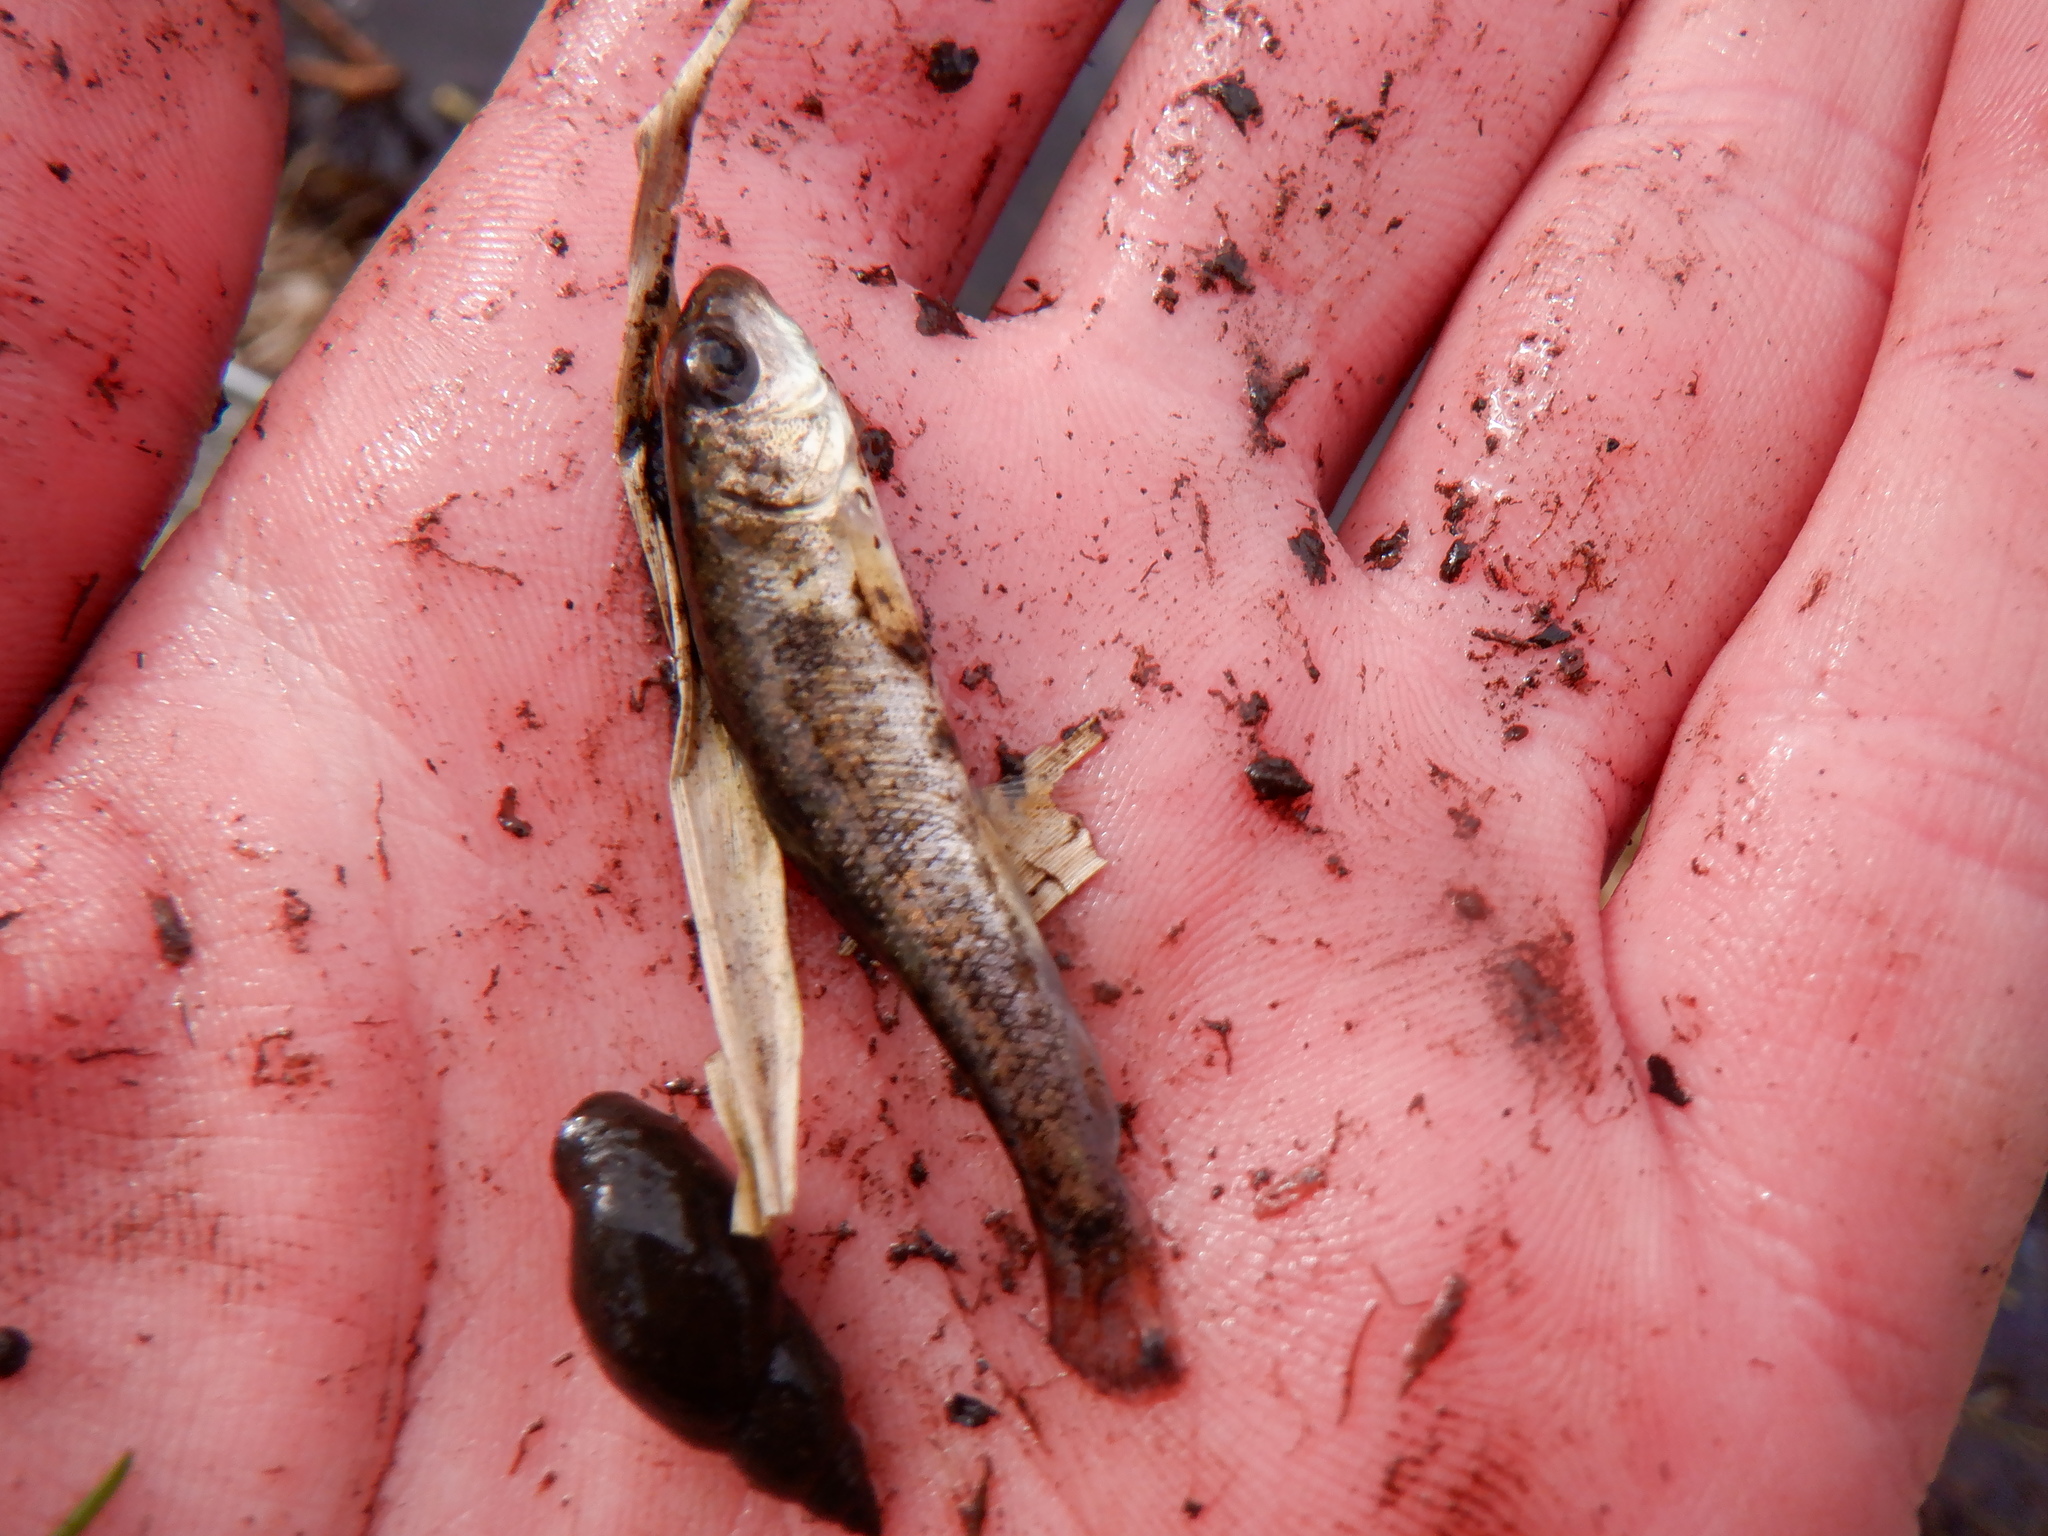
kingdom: Animalia
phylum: Chordata
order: Cypriniformes
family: Catostomidae
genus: Catostomus
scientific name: Catostomus commersonii
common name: White sucker
